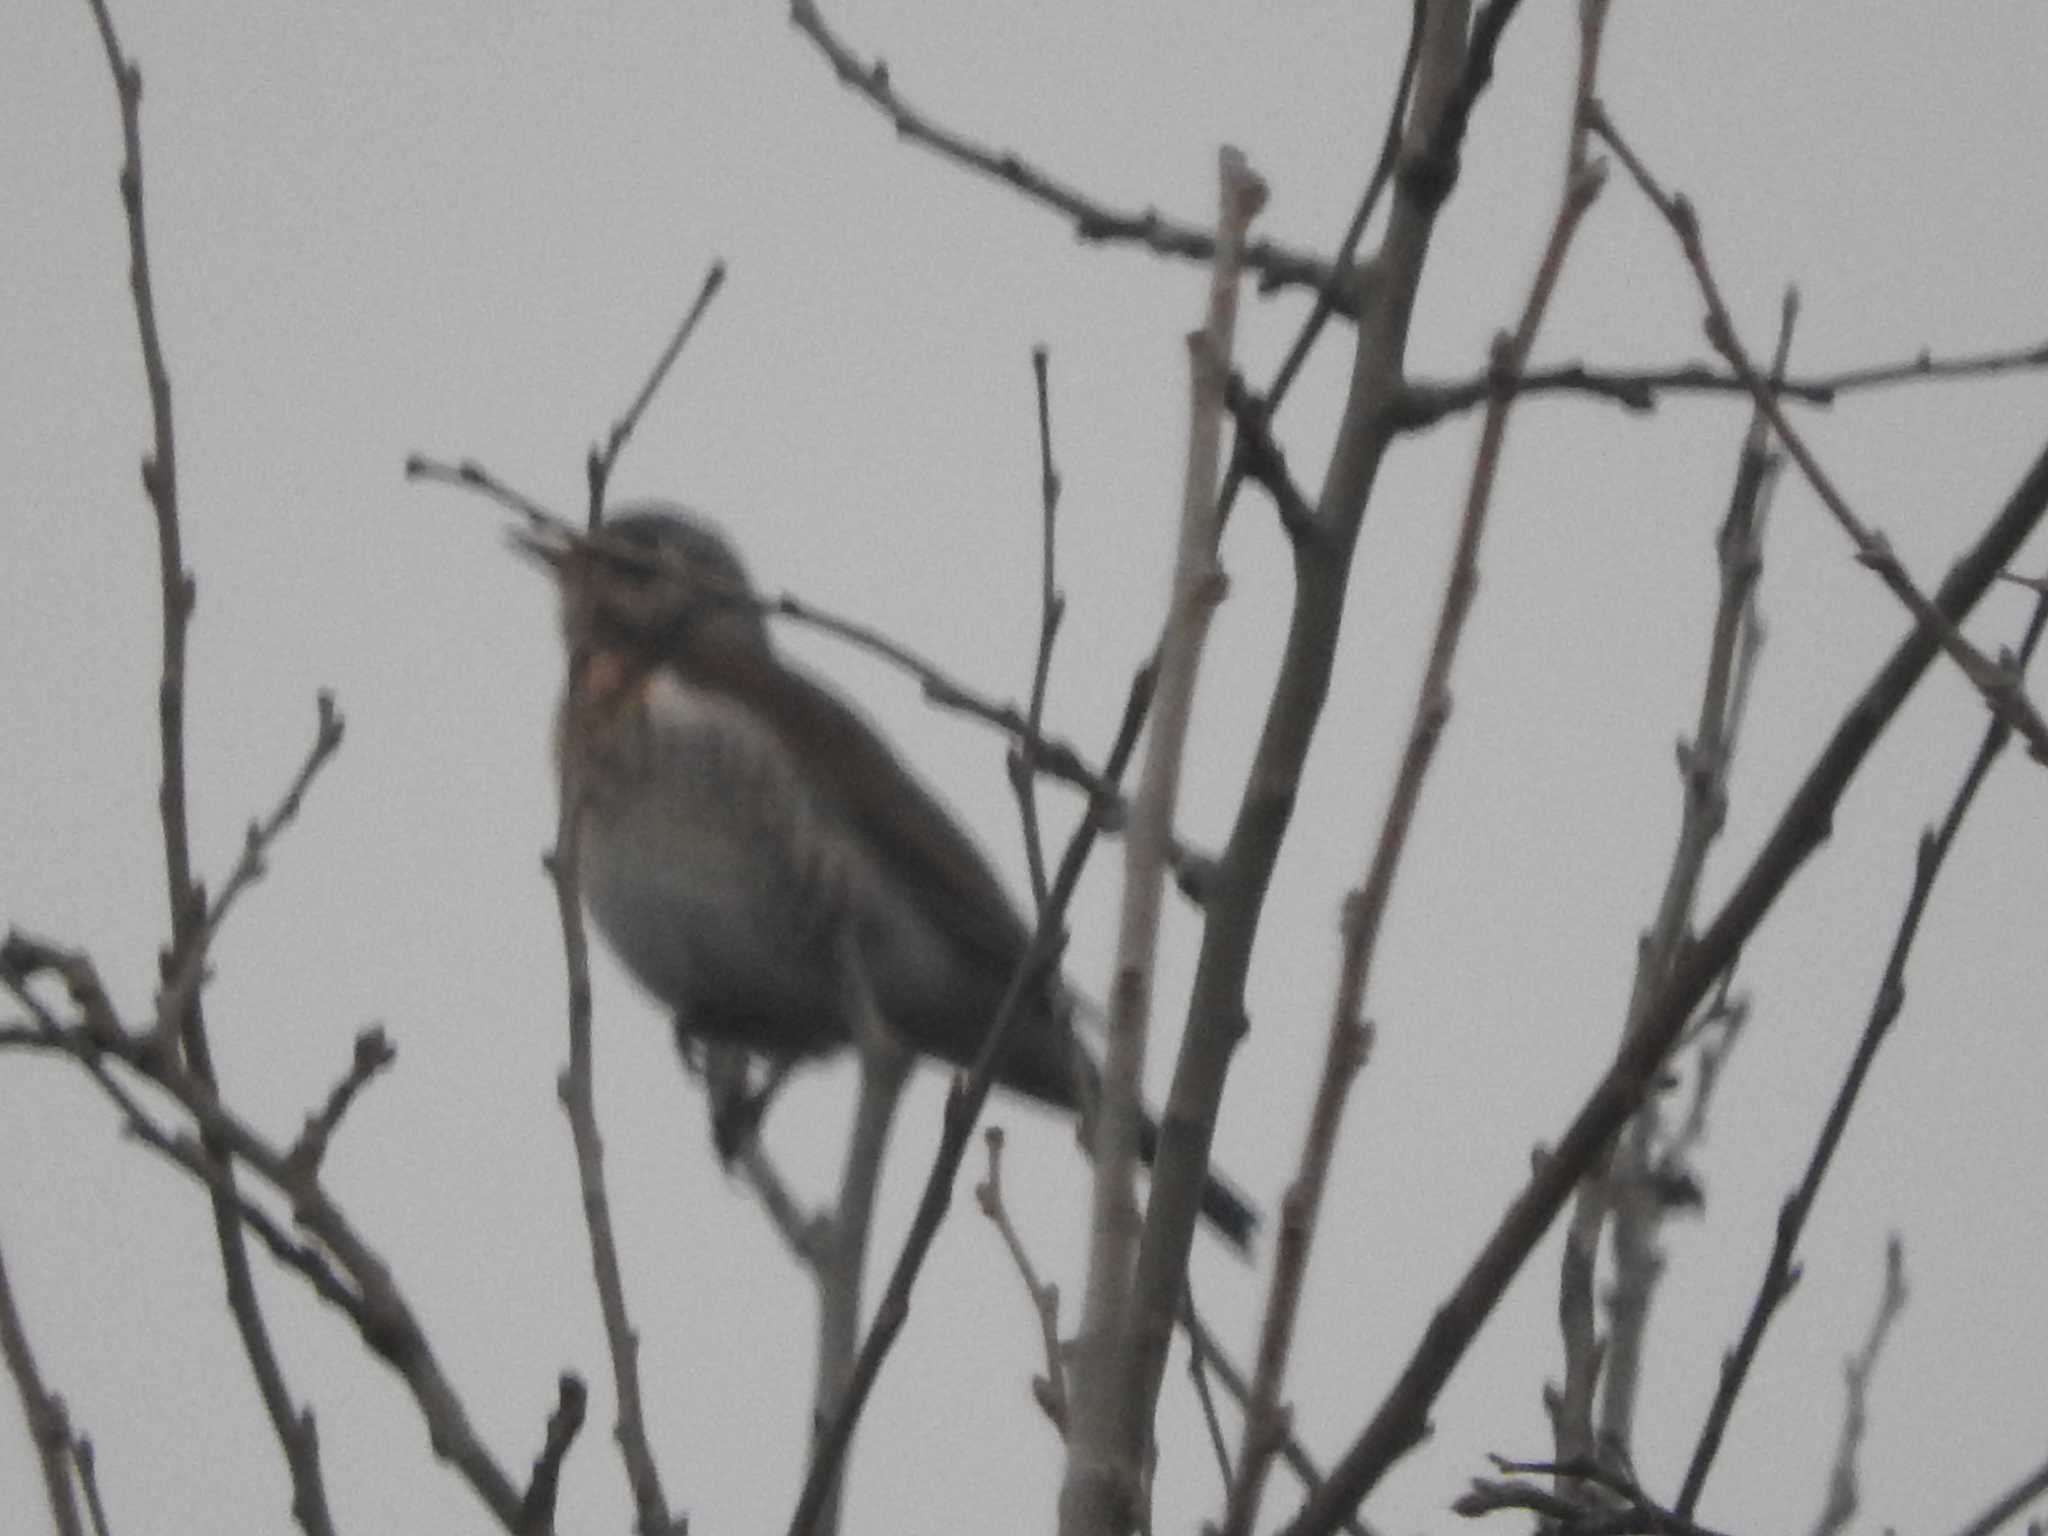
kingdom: Animalia
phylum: Chordata
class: Aves
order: Passeriformes
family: Turdidae
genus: Turdus
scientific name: Turdus pilaris
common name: Fieldfare
